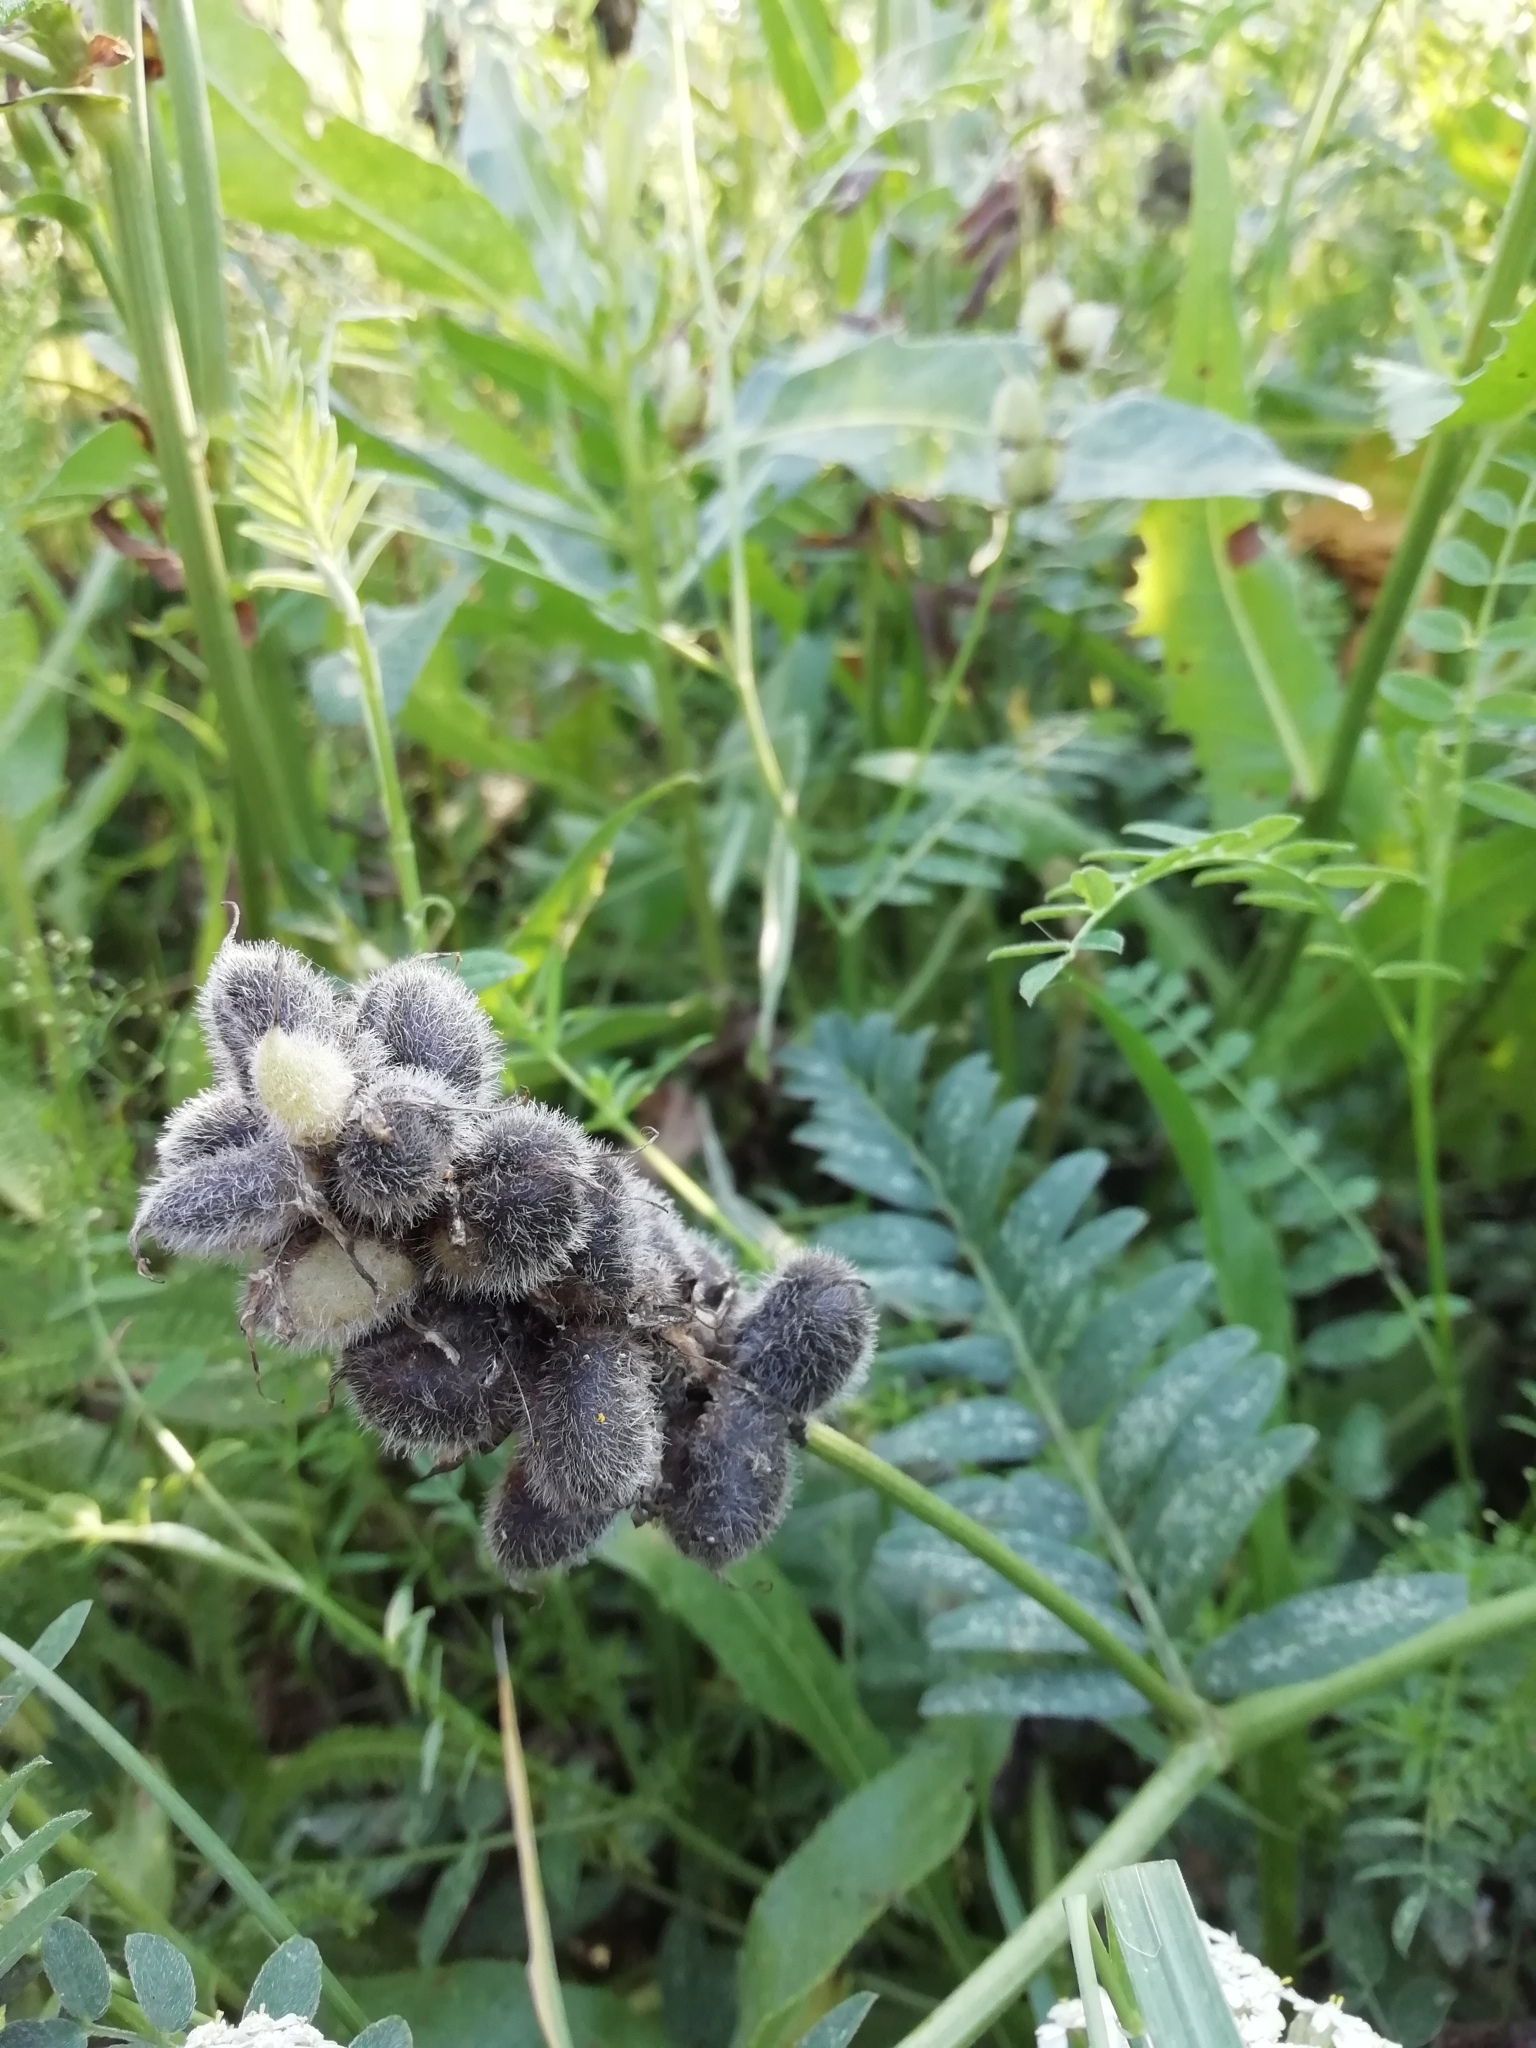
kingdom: Plantae
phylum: Tracheophyta
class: Magnoliopsida
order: Fabales
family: Fabaceae
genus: Astragalus
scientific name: Astragalus cicer
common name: Chick-pea milk-vetch
